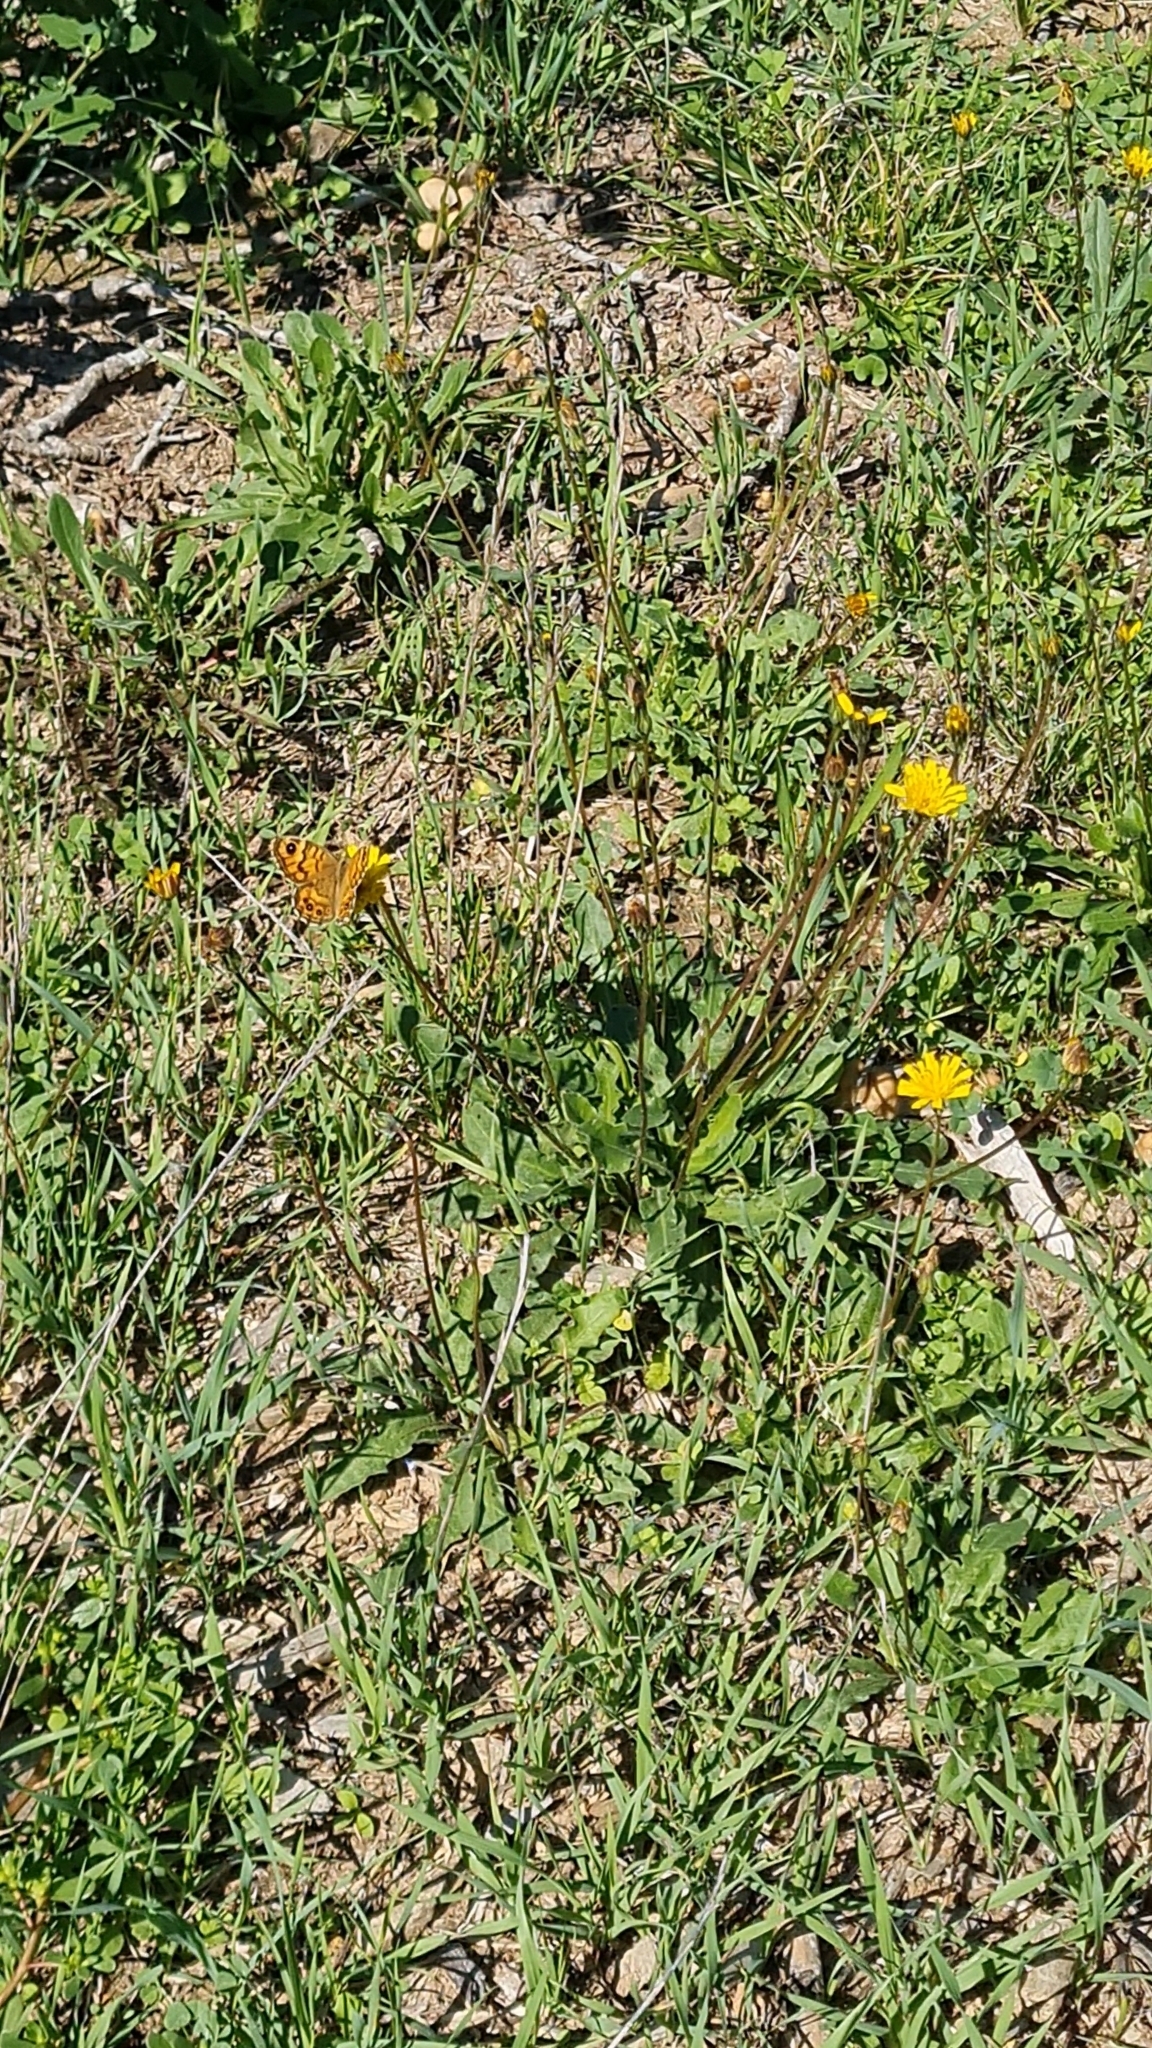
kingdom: Animalia
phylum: Arthropoda
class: Insecta
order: Lepidoptera
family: Nymphalidae
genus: Pararge
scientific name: Pararge Lasiommata megera
